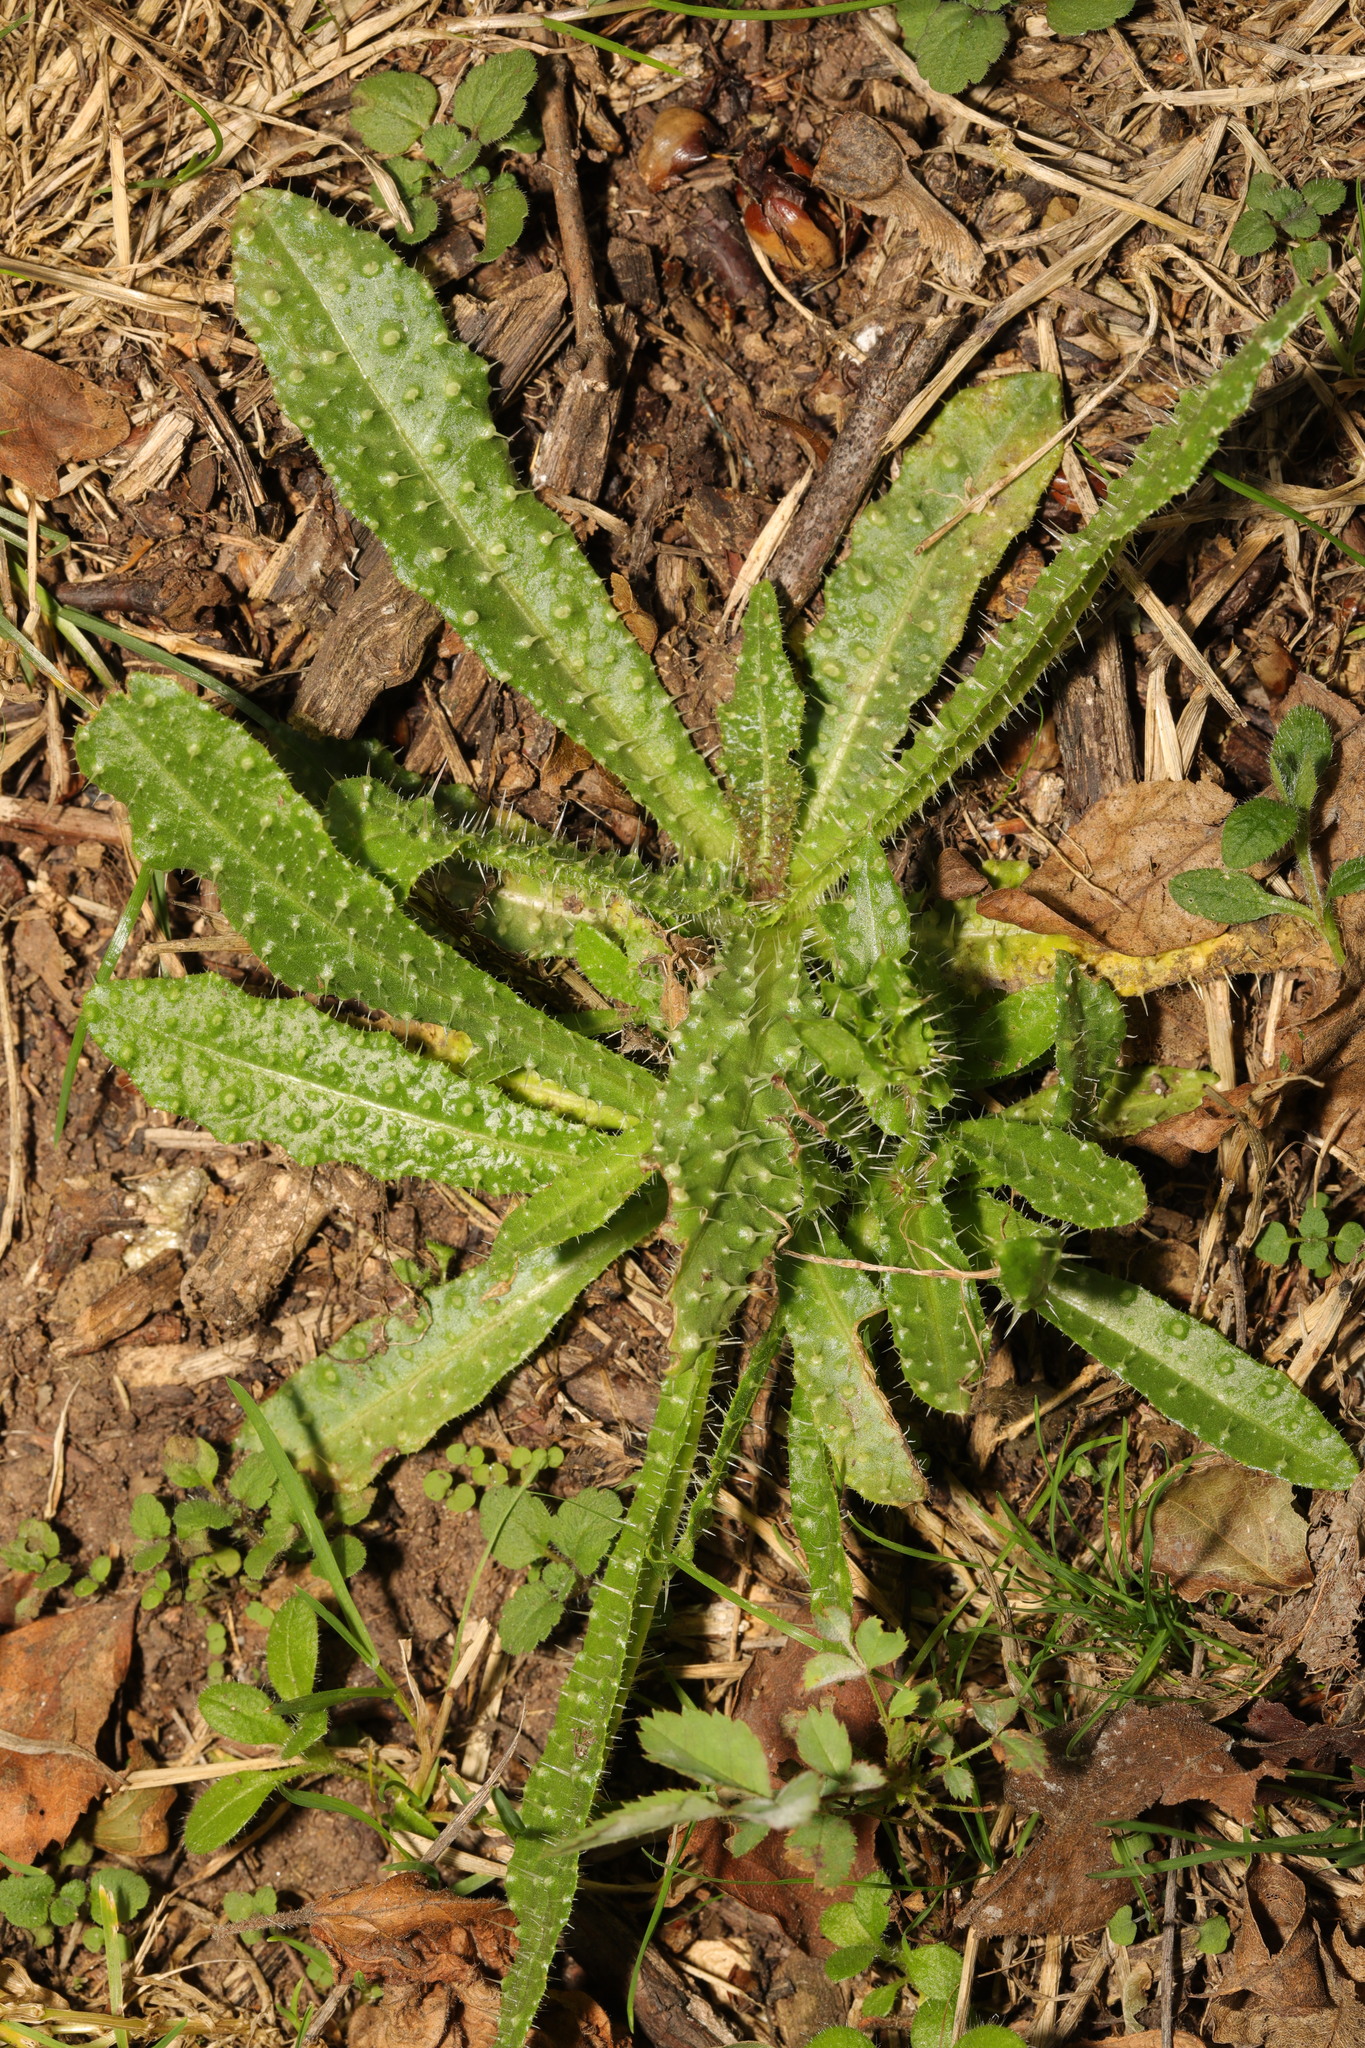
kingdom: Plantae
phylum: Tracheophyta
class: Magnoliopsida
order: Asterales
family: Asteraceae
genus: Helminthotheca
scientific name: Helminthotheca echioides
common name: Ox-tongue
